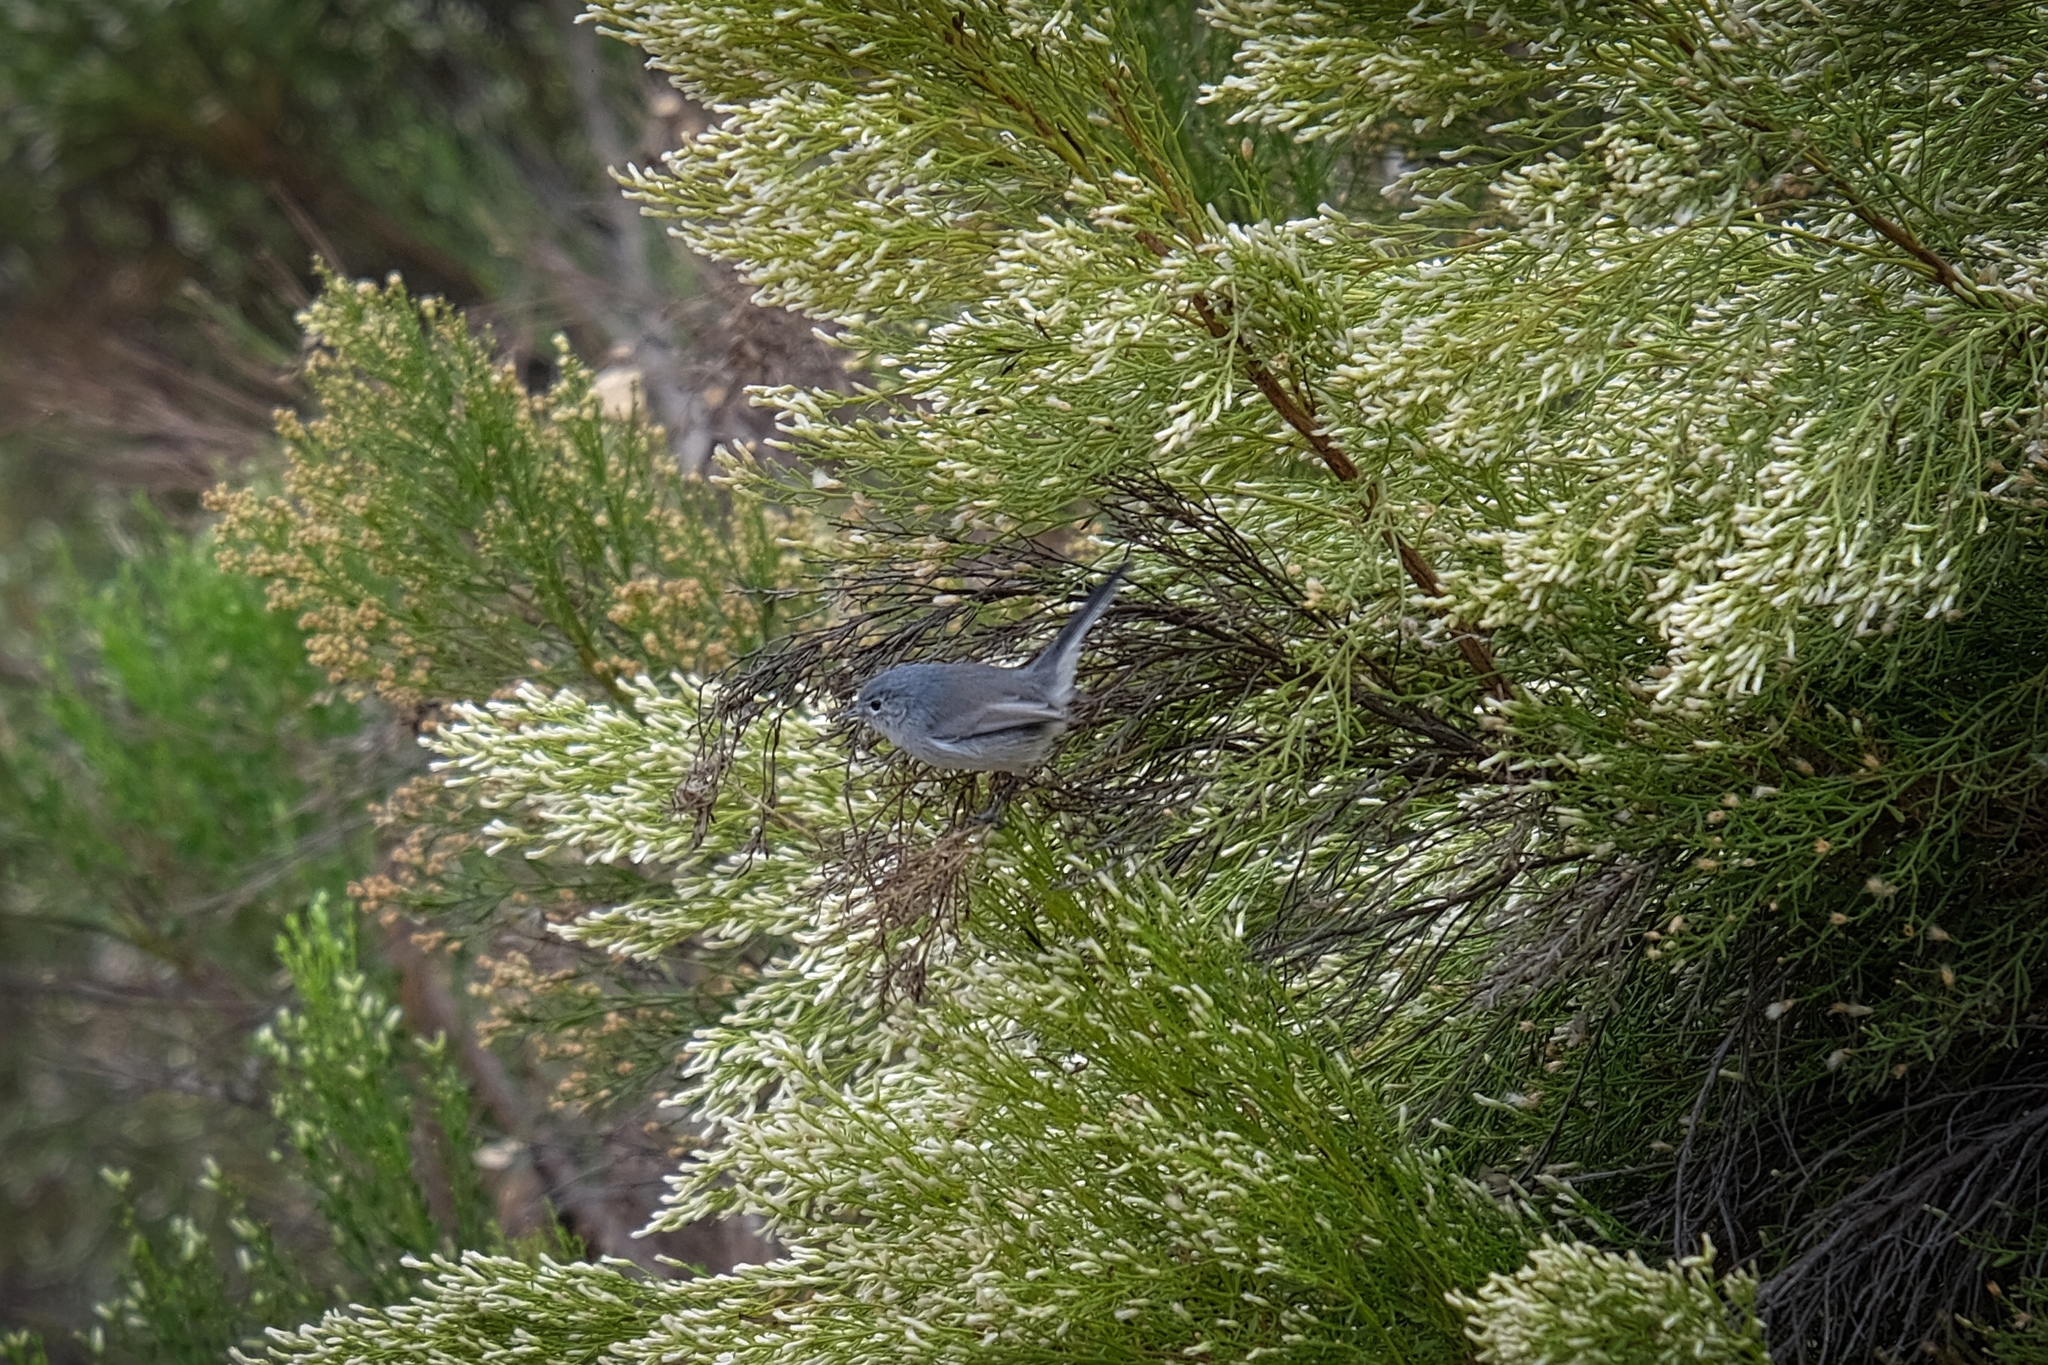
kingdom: Animalia
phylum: Chordata
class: Aves
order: Passeriformes
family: Polioptilidae
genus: Polioptila
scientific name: Polioptila caerulea
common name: Blue-gray gnatcatcher
